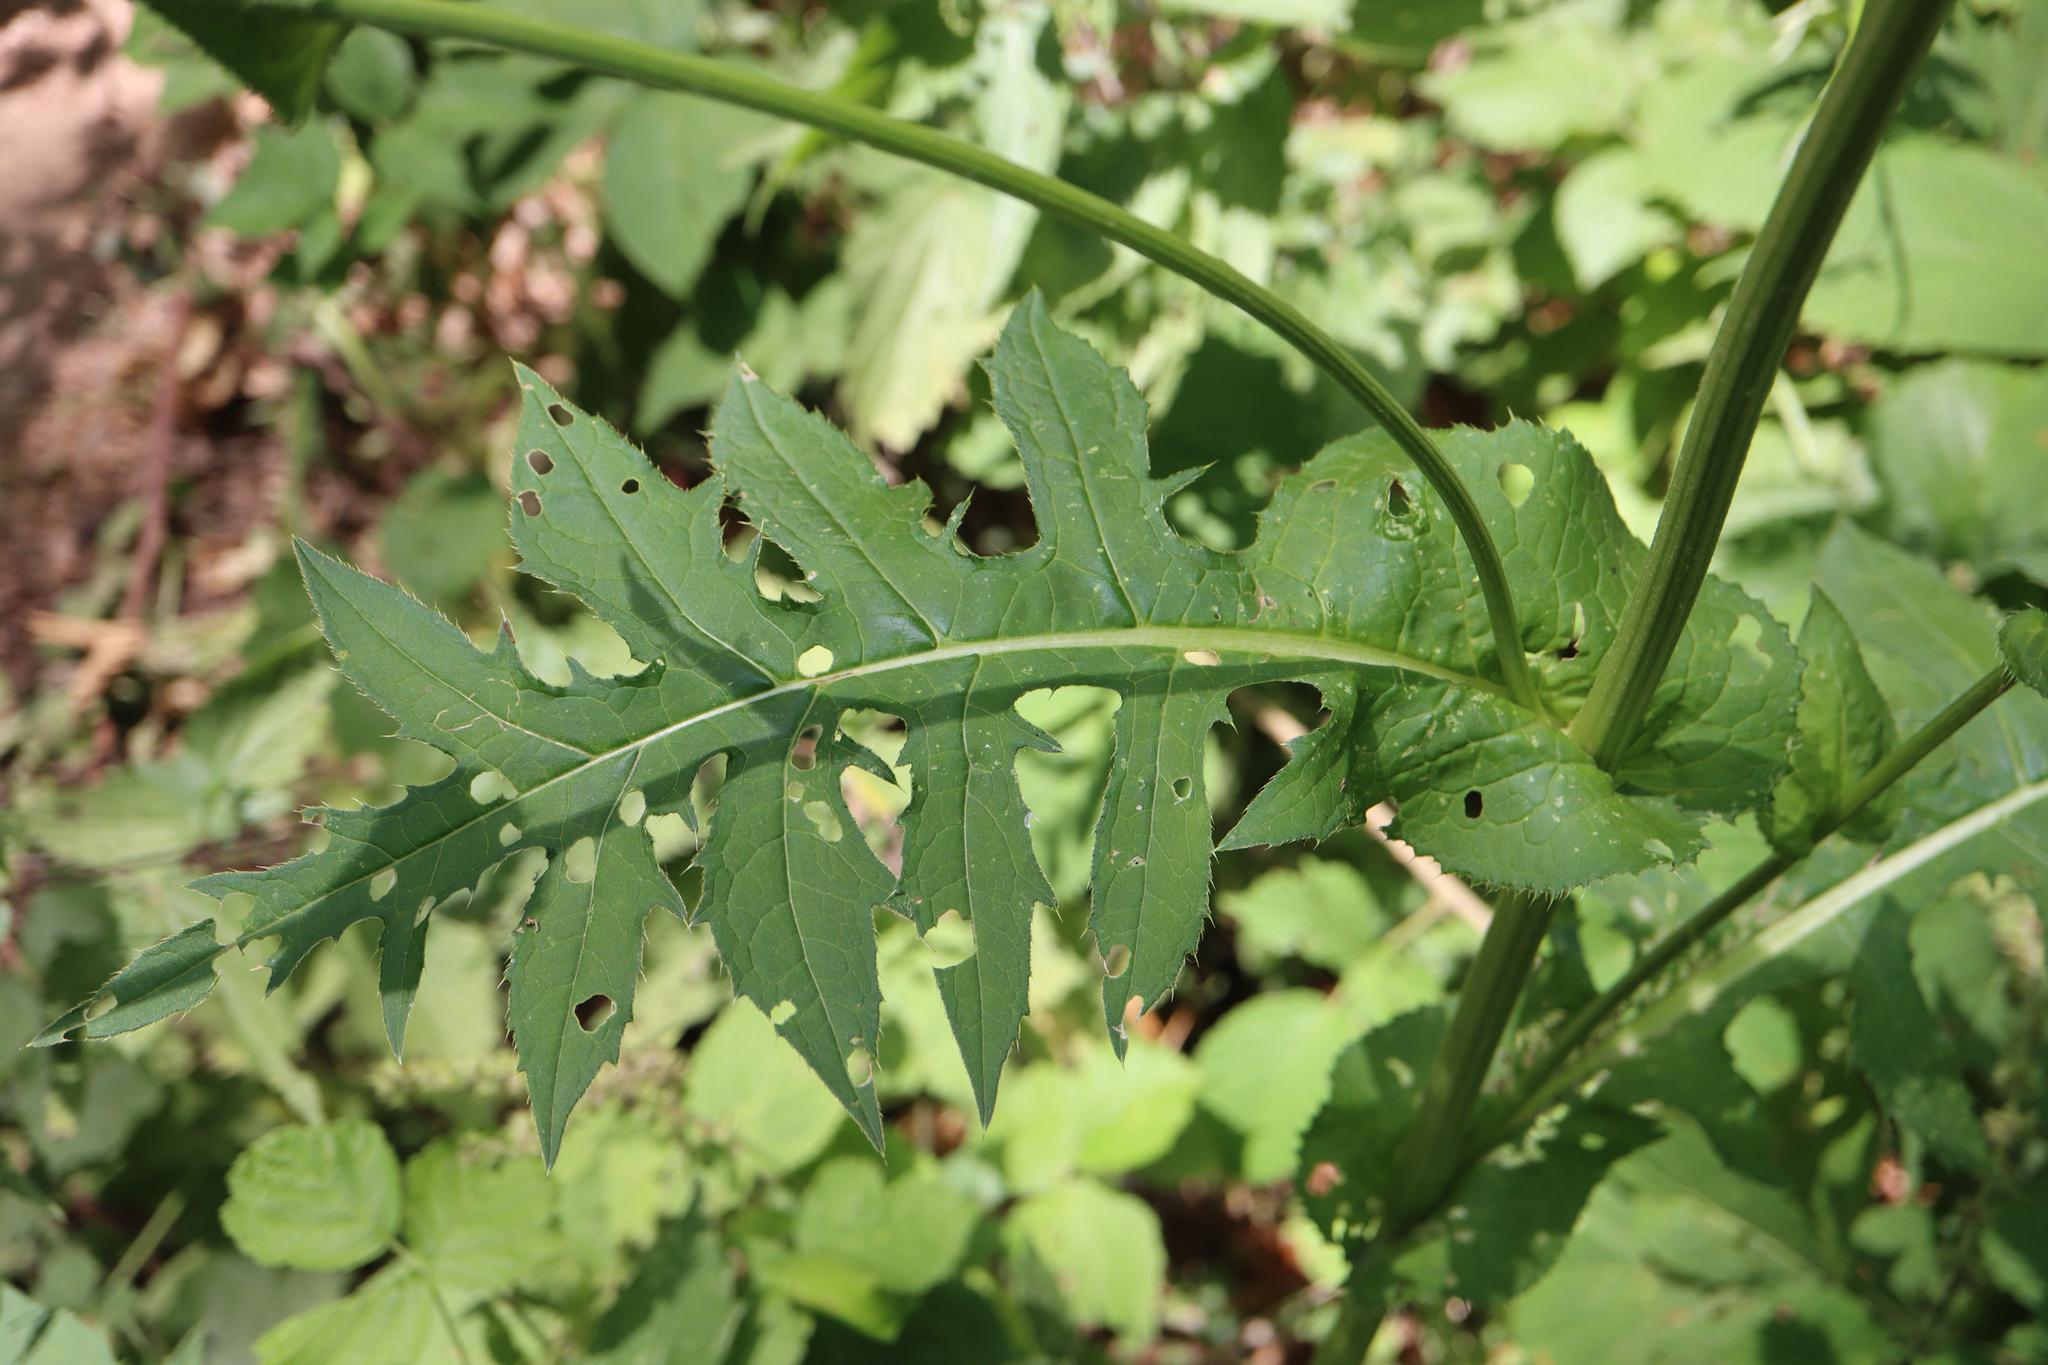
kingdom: Plantae
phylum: Tracheophyta
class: Magnoliopsida
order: Asterales
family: Asteraceae
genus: Cirsium
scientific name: Cirsium oleraceum
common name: Cabbage thistle
